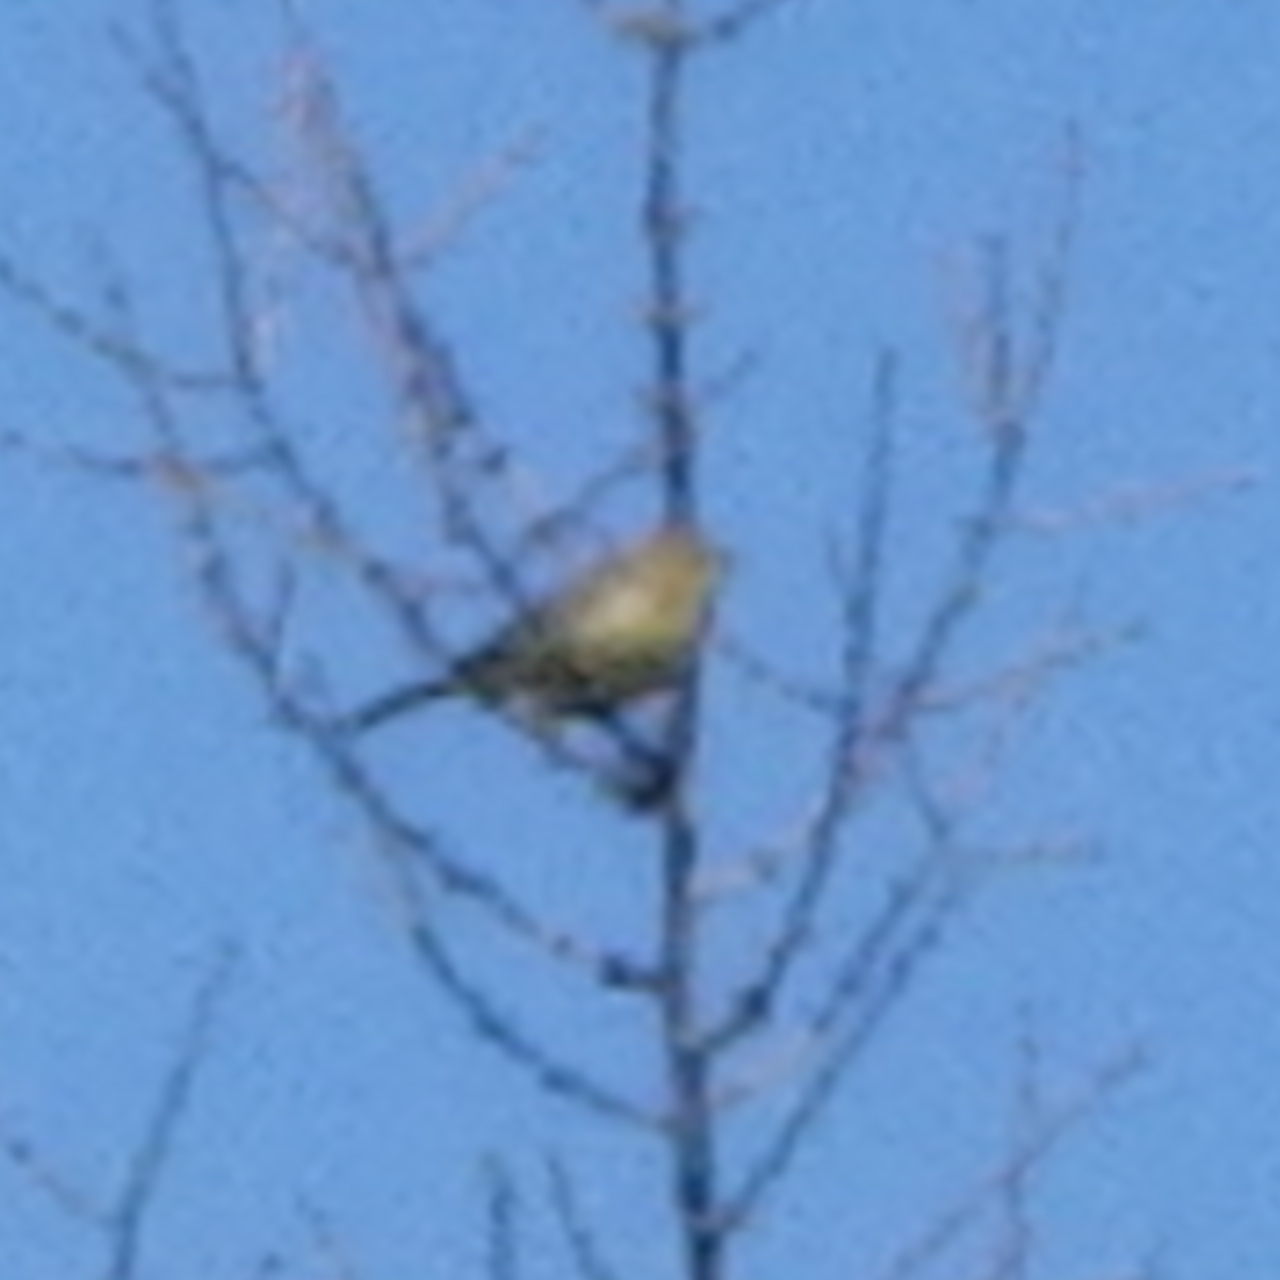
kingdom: Animalia
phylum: Chordata
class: Aves
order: Passeriformes
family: Parulidae
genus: Setophaga
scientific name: Setophaga palmarum
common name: Palm warbler
